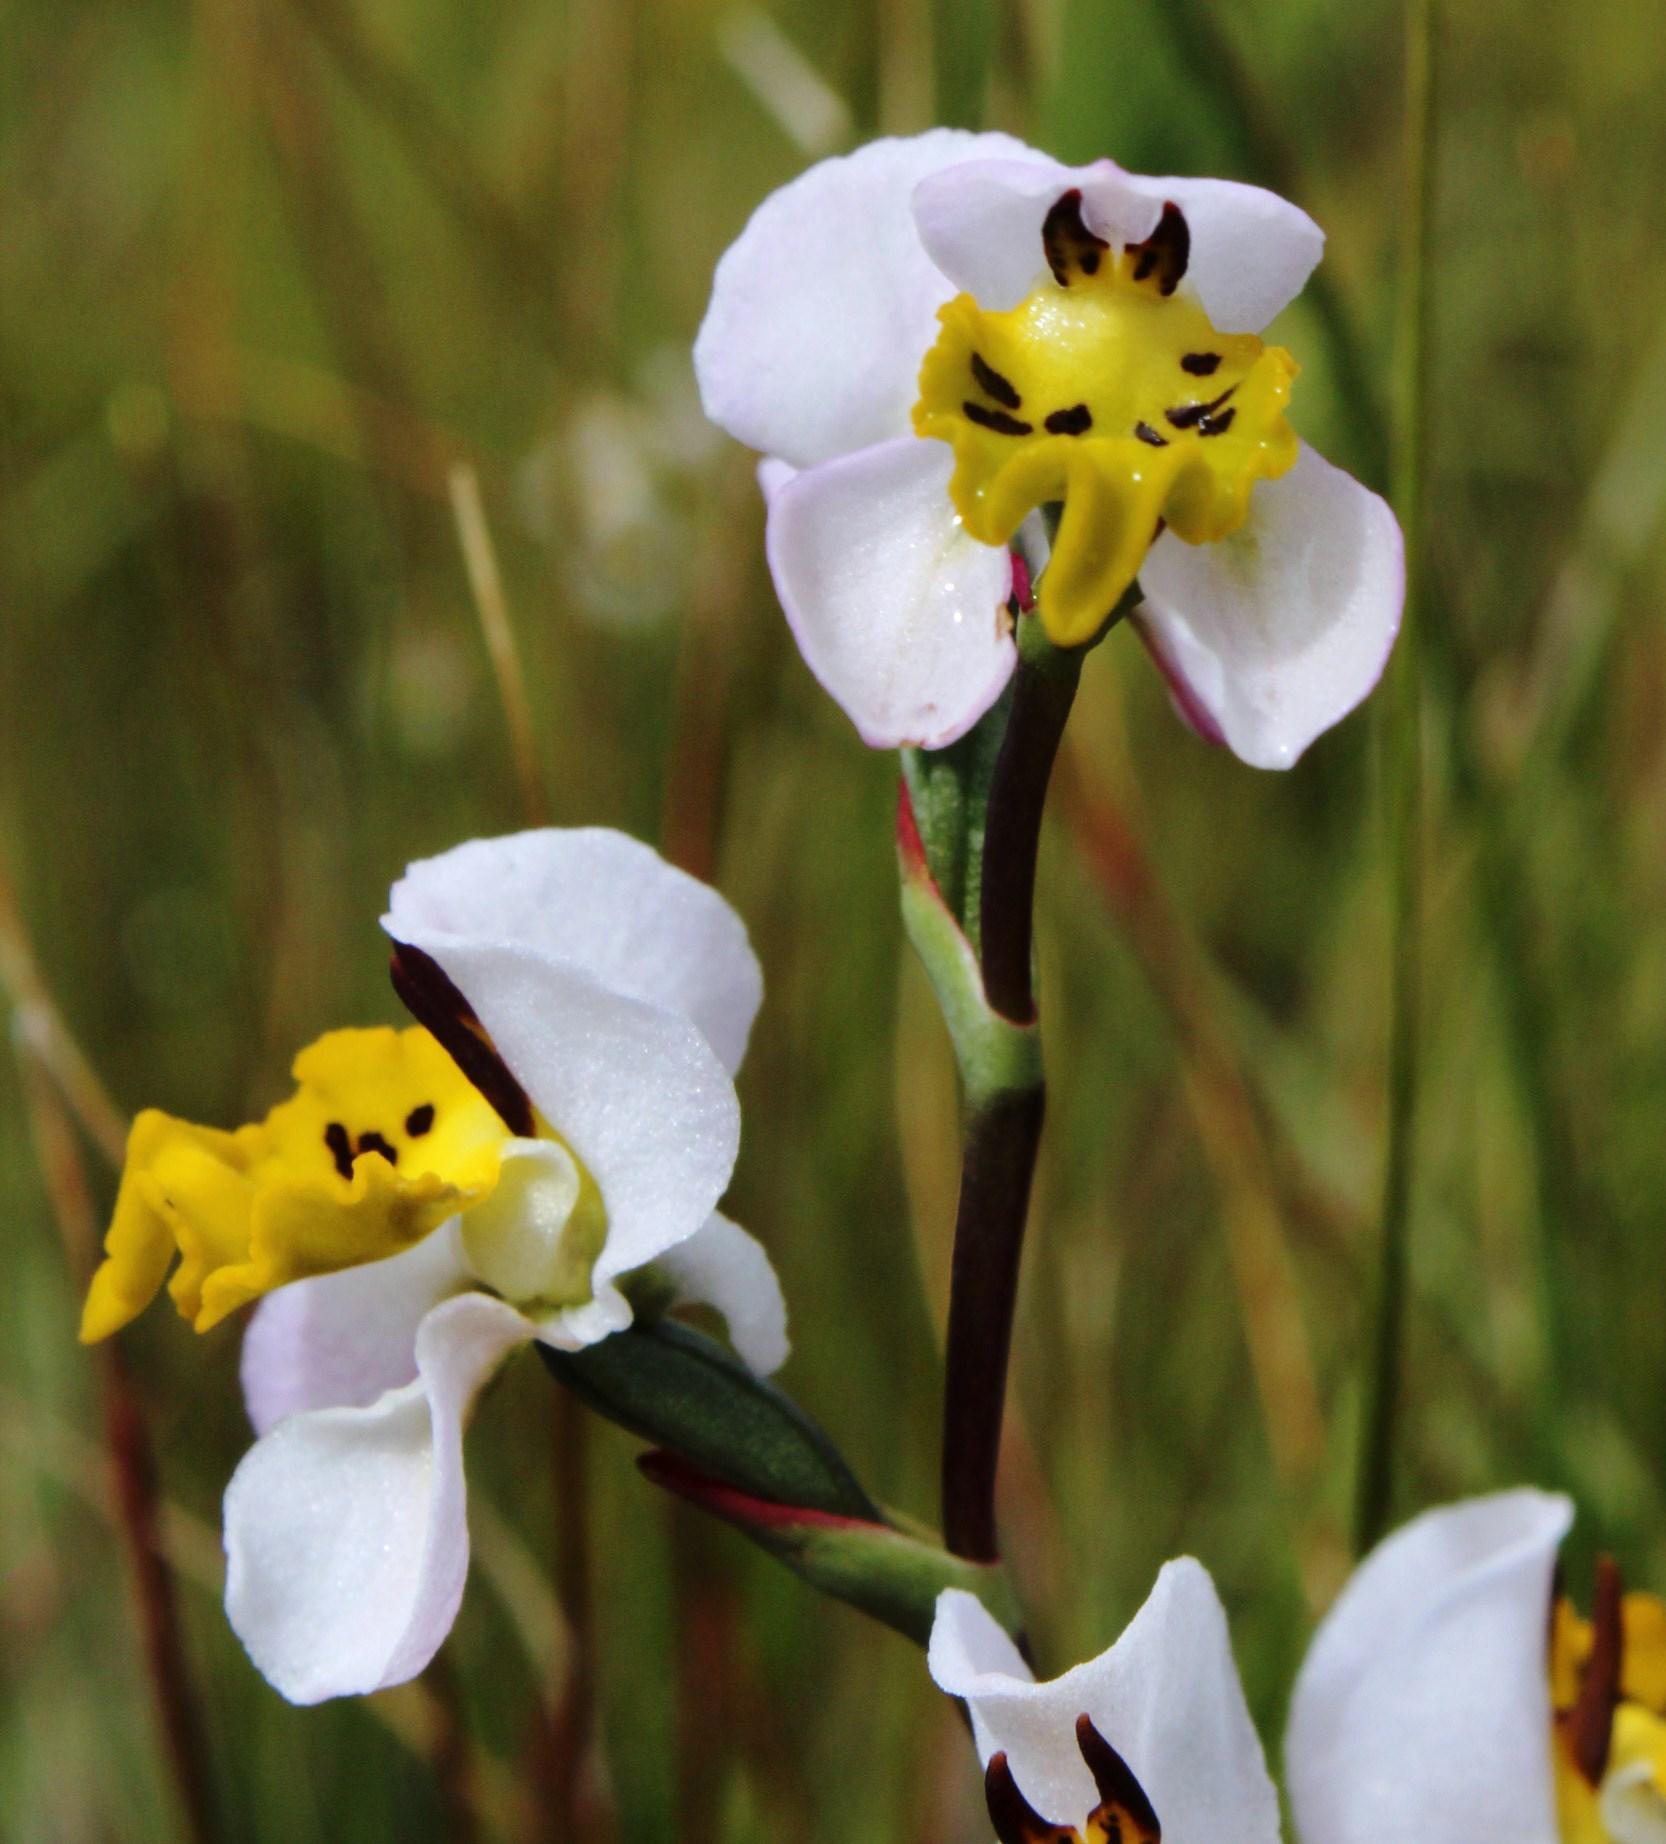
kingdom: Plantae
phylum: Tracheophyta
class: Liliopsida
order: Asparagales
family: Orchidaceae
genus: Disa
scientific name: Disa flexuosa
